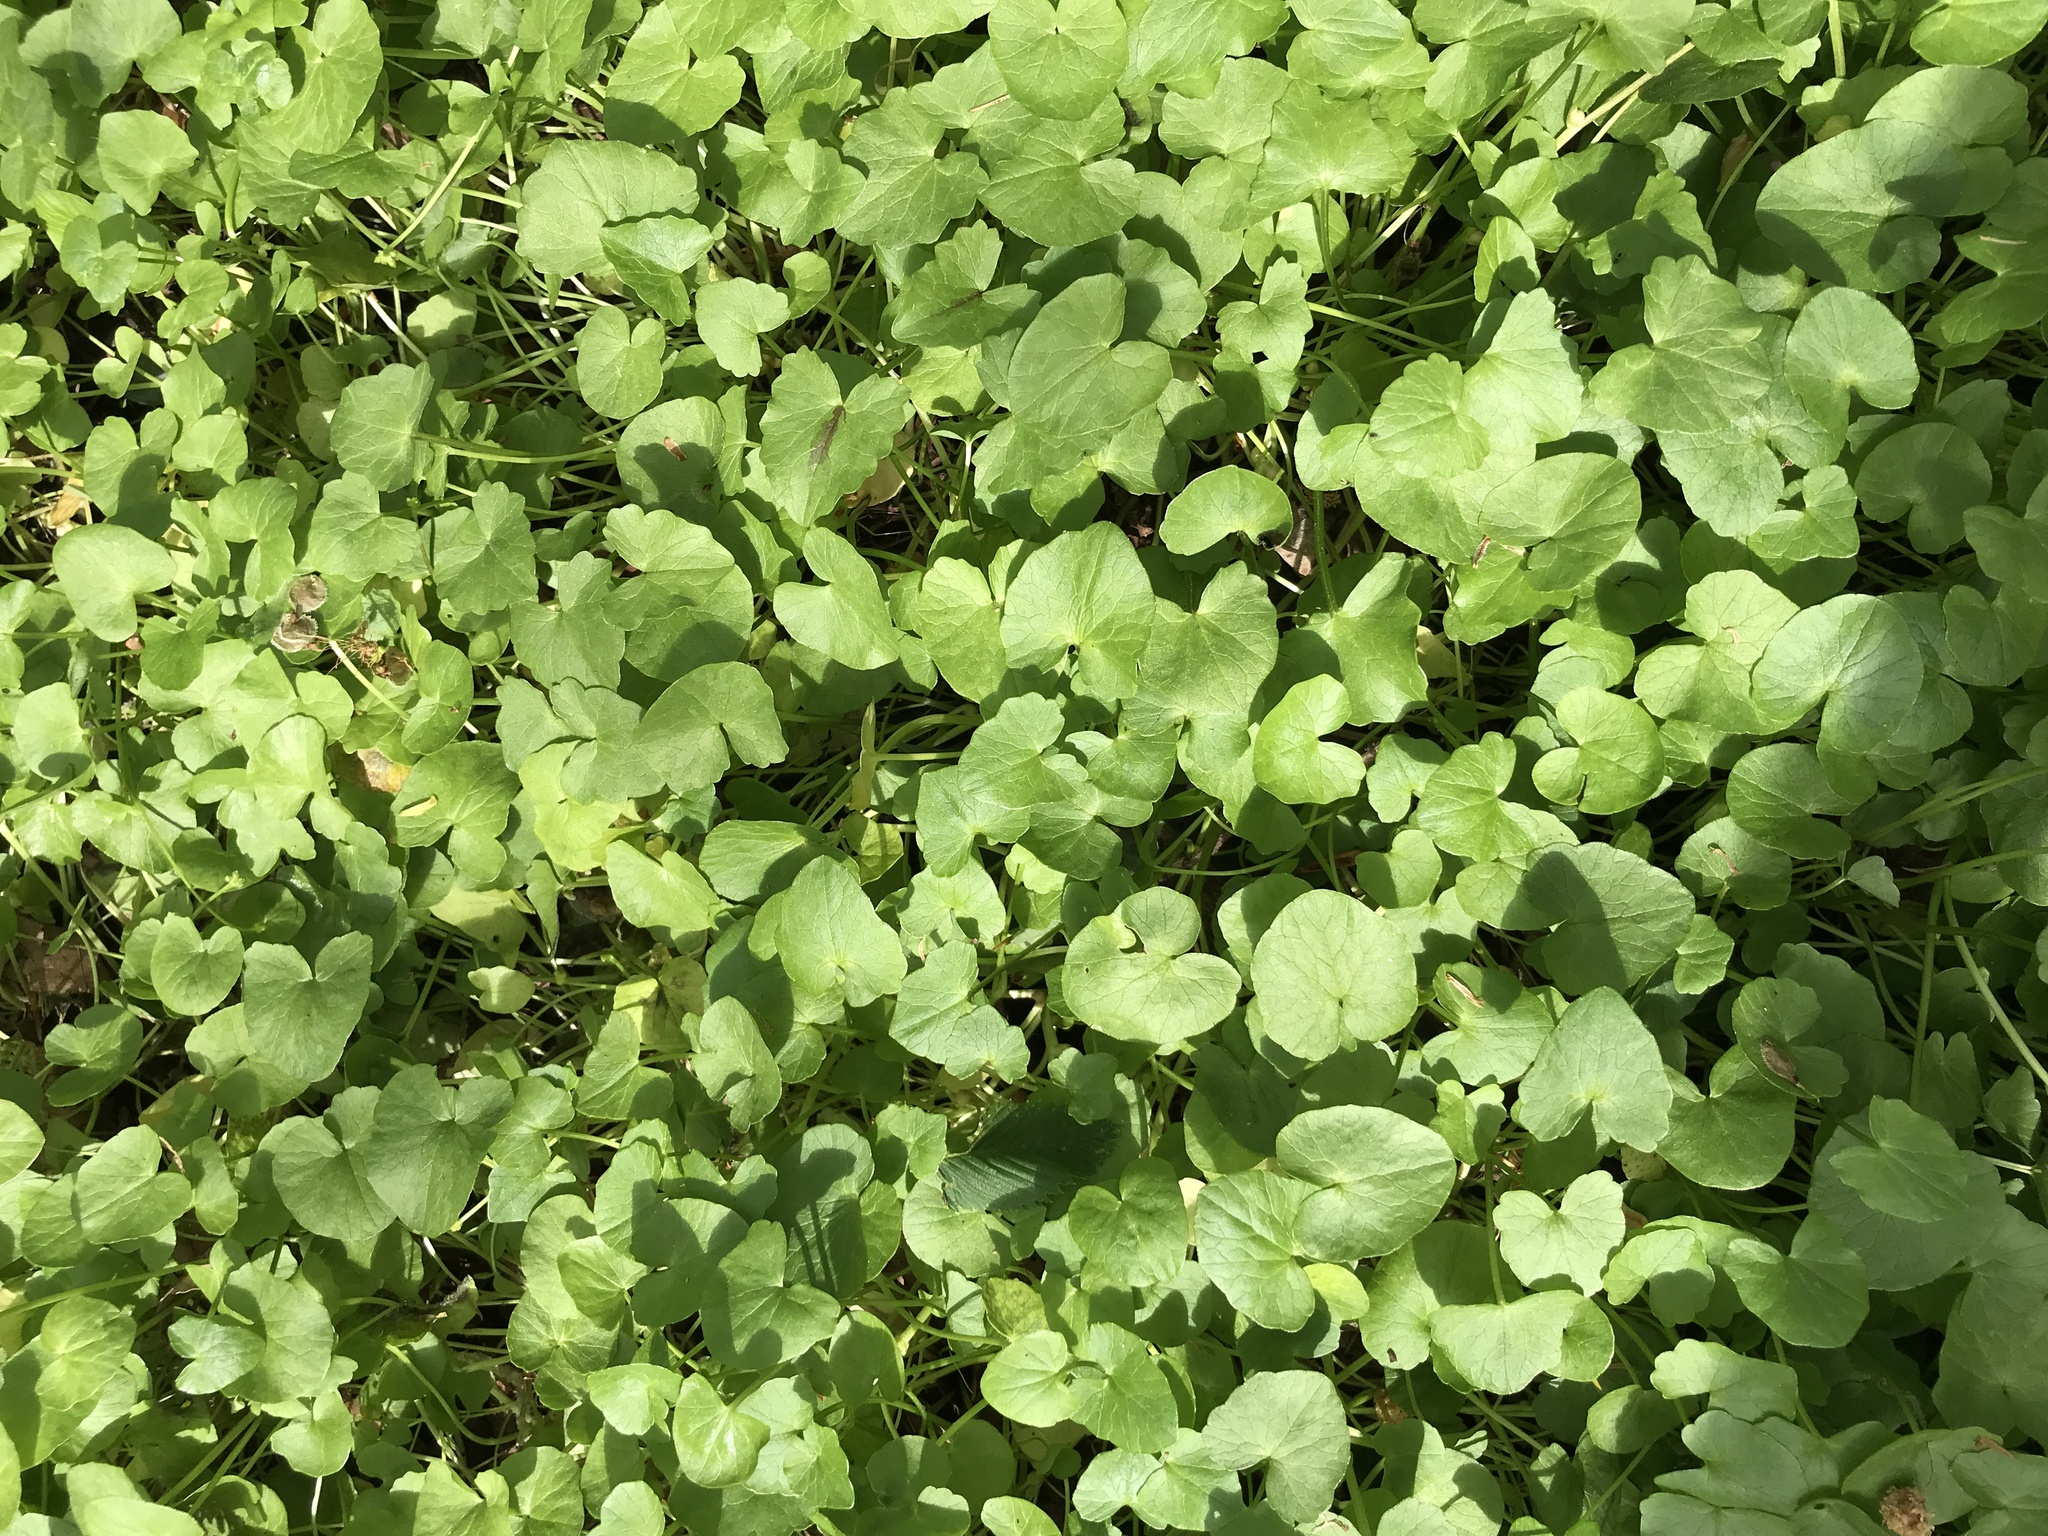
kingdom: Plantae
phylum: Tracheophyta
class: Magnoliopsida
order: Ranunculales
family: Ranunculaceae
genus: Ficaria
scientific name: Ficaria verna
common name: Lesser celandine
